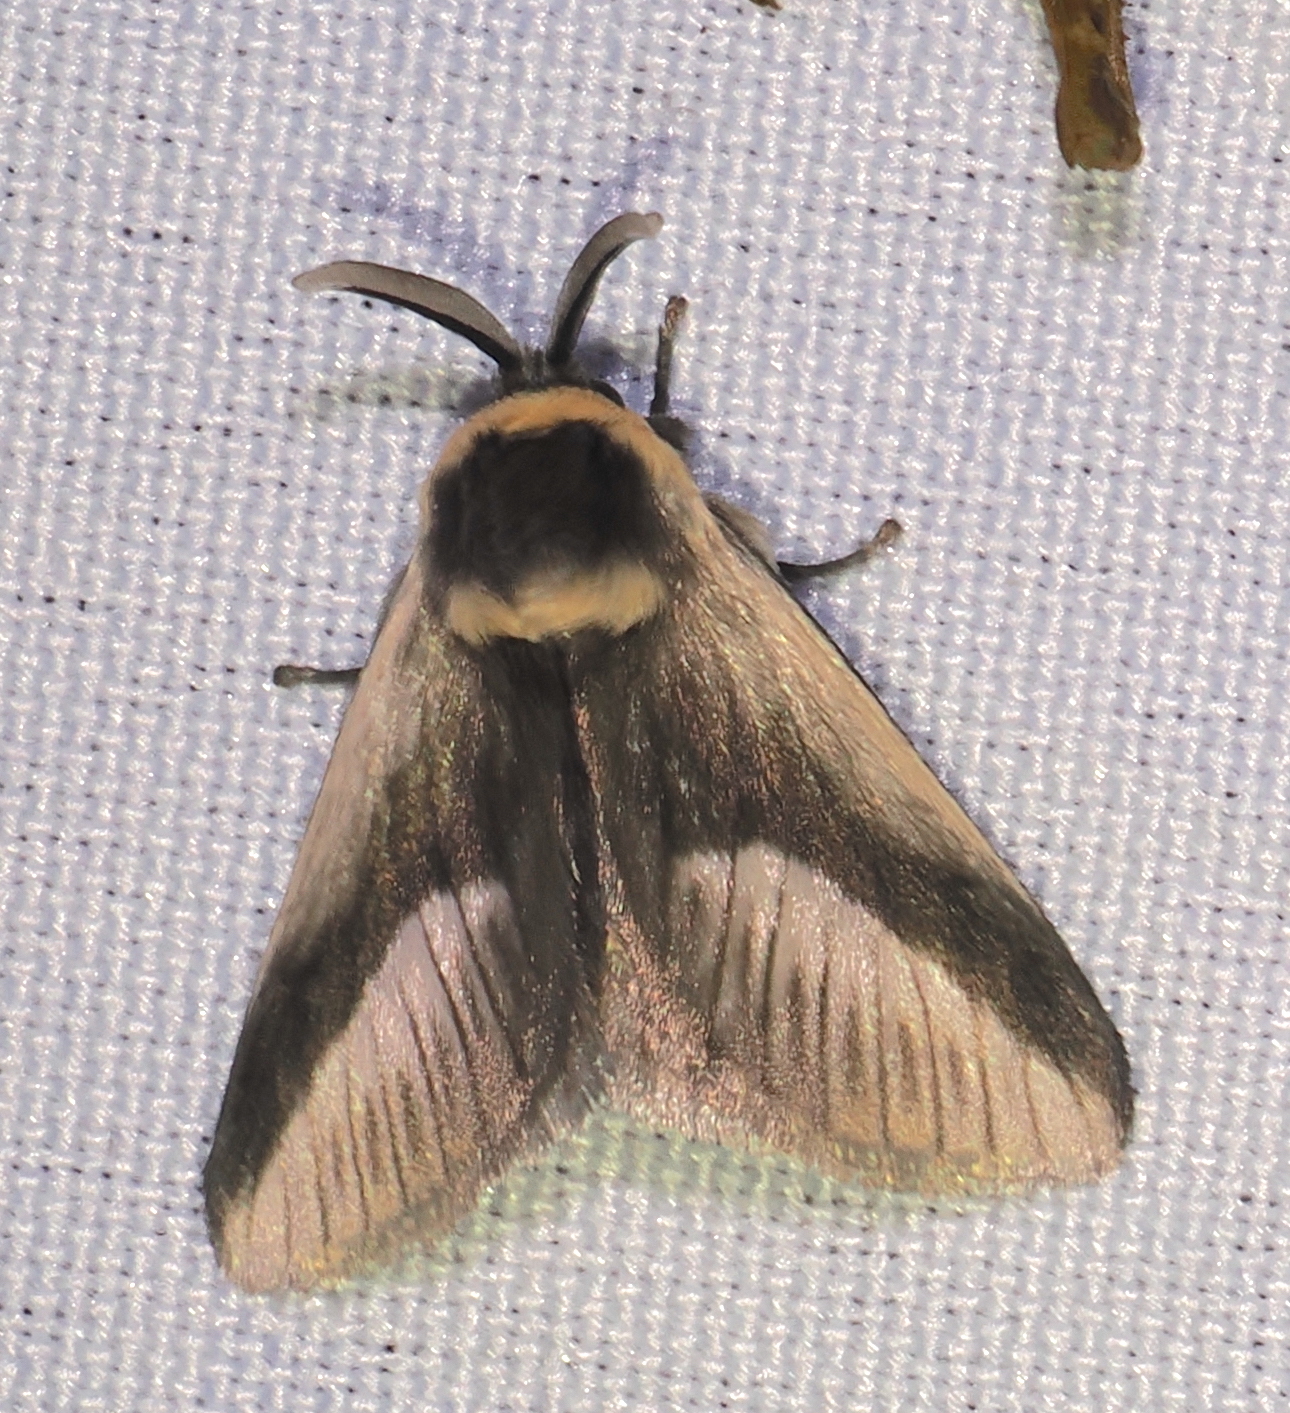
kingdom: Animalia
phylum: Arthropoda
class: Insecta
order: Lepidoptera
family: Megalopygidae
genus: Mesoscia
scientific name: Mesoscia dumilla
